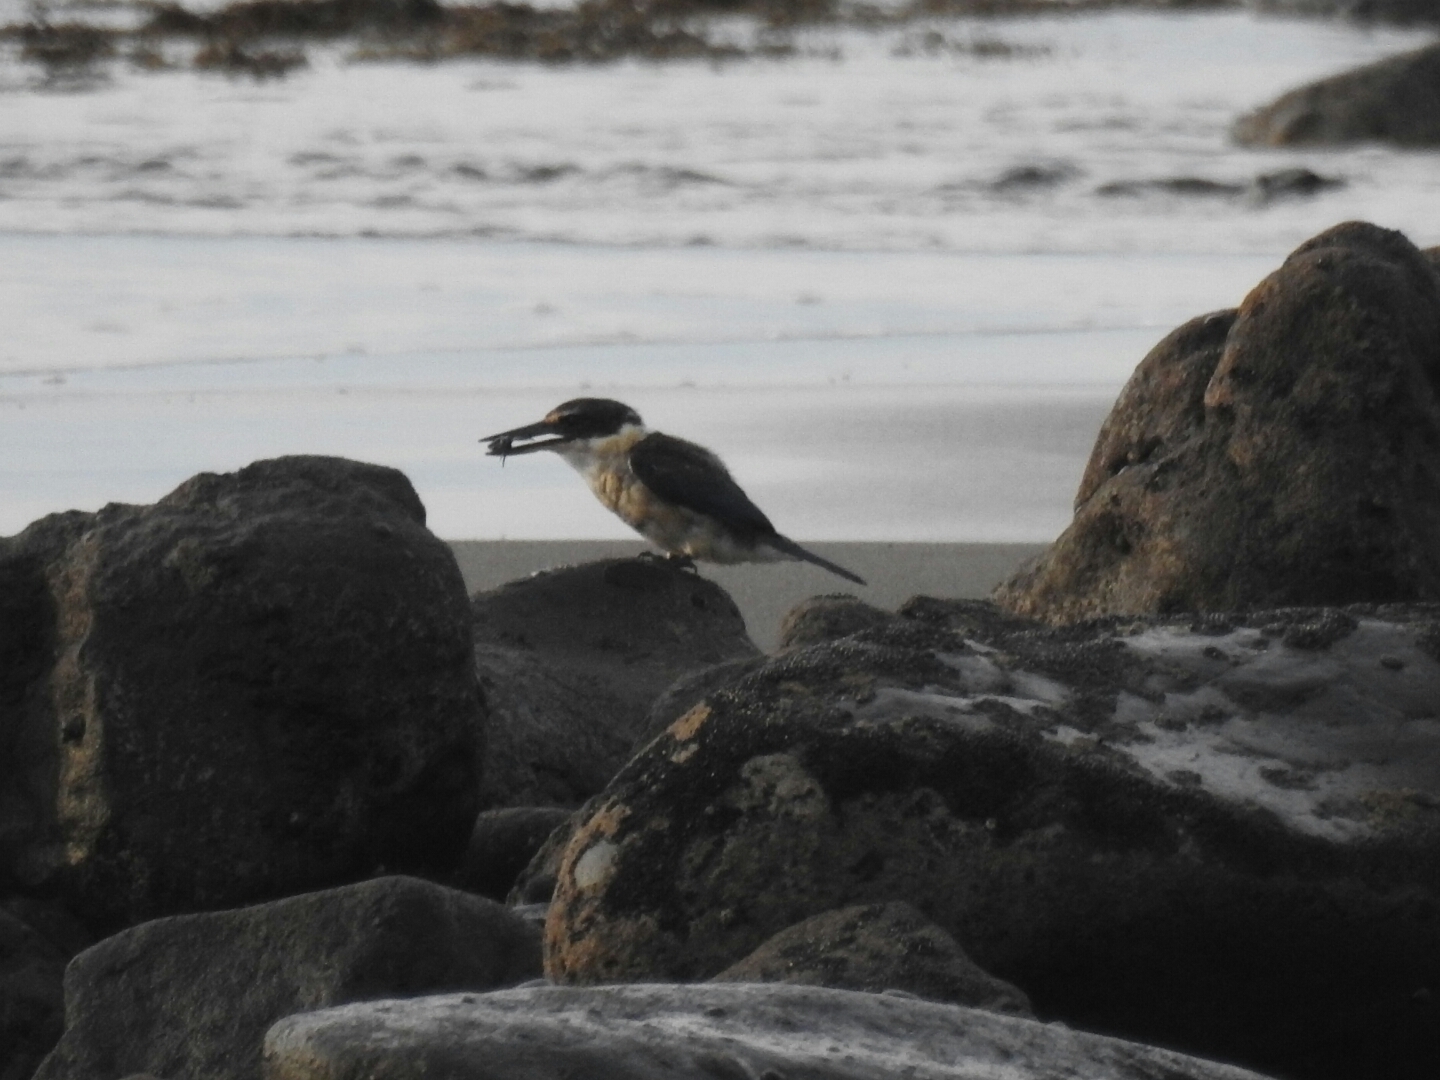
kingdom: Animalia
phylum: Chordata
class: Aves
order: Coraciiformes
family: Alcedinidae
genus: Todiramphus
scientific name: Todiramphus sanctus
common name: Sacred kingfisher
